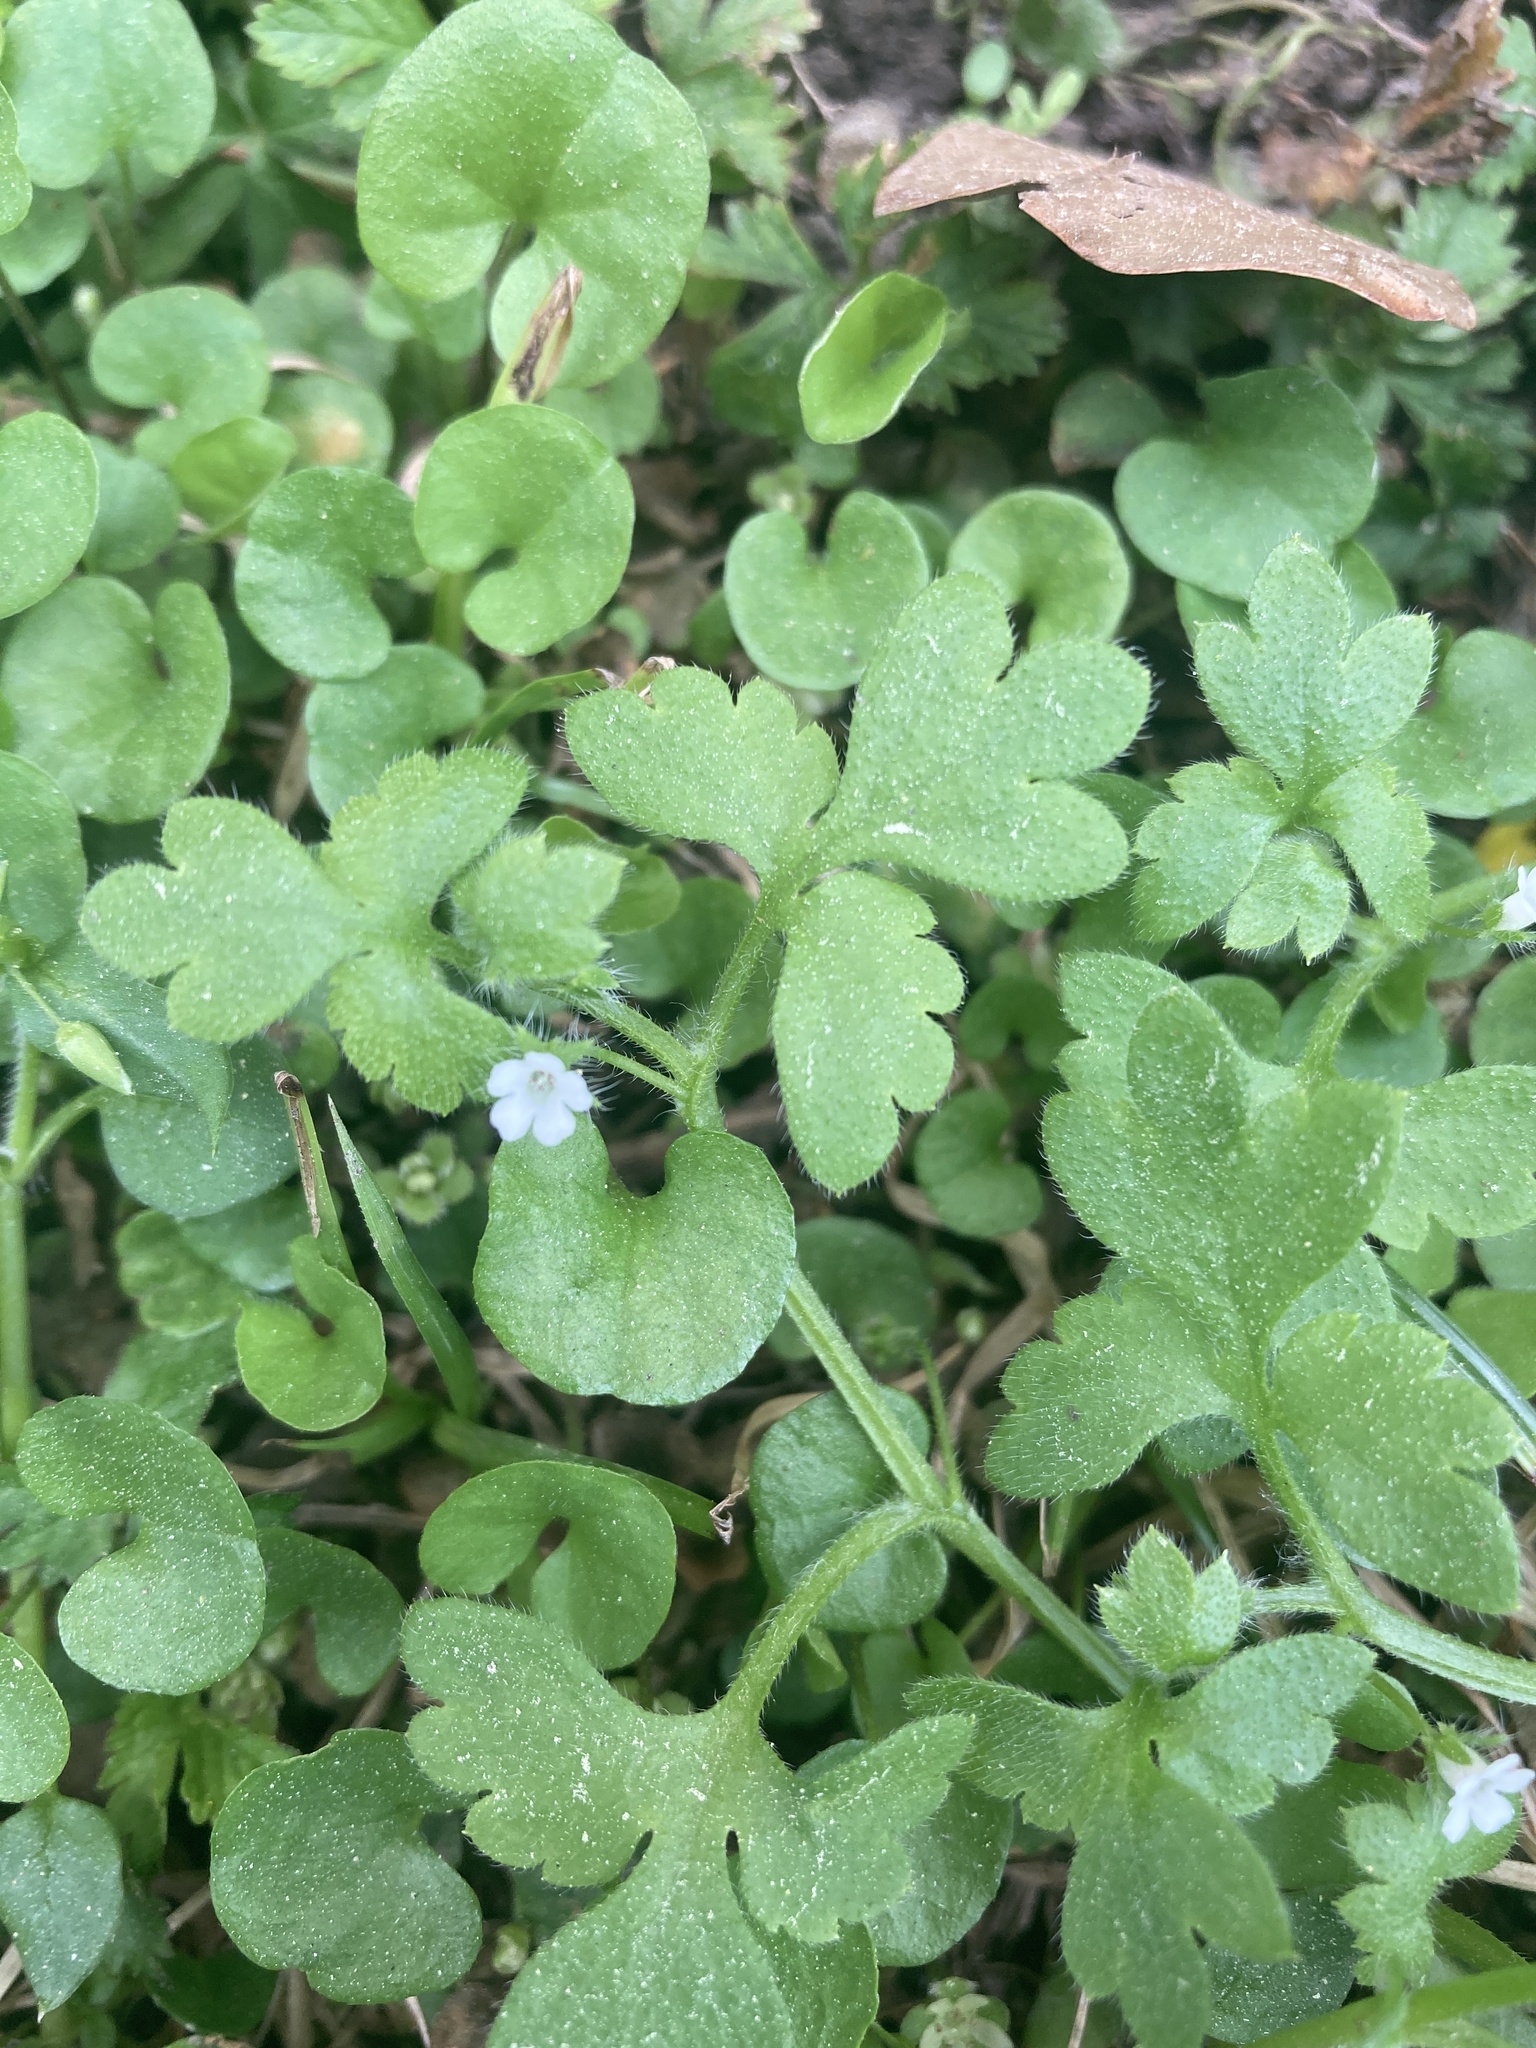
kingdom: Plantae
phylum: Tracheophyta
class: Magnoliopsida
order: Boraginales
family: Hydrophyllaceae
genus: Nemophila
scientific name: Nemophila aphylla
